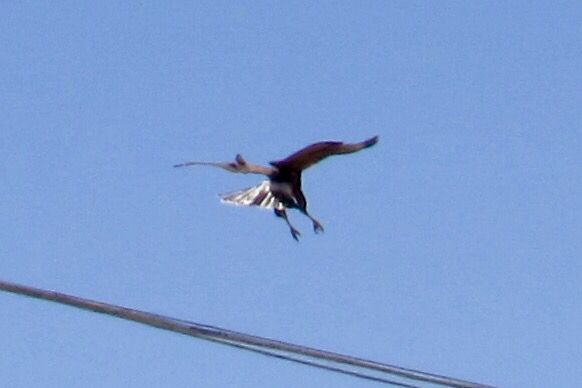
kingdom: Animalia
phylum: Chordata
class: Aves
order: Accipitriformes
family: Accipitridae
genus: Parabuteo
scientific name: Parabuteo unicinctus
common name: Harris's hawk
